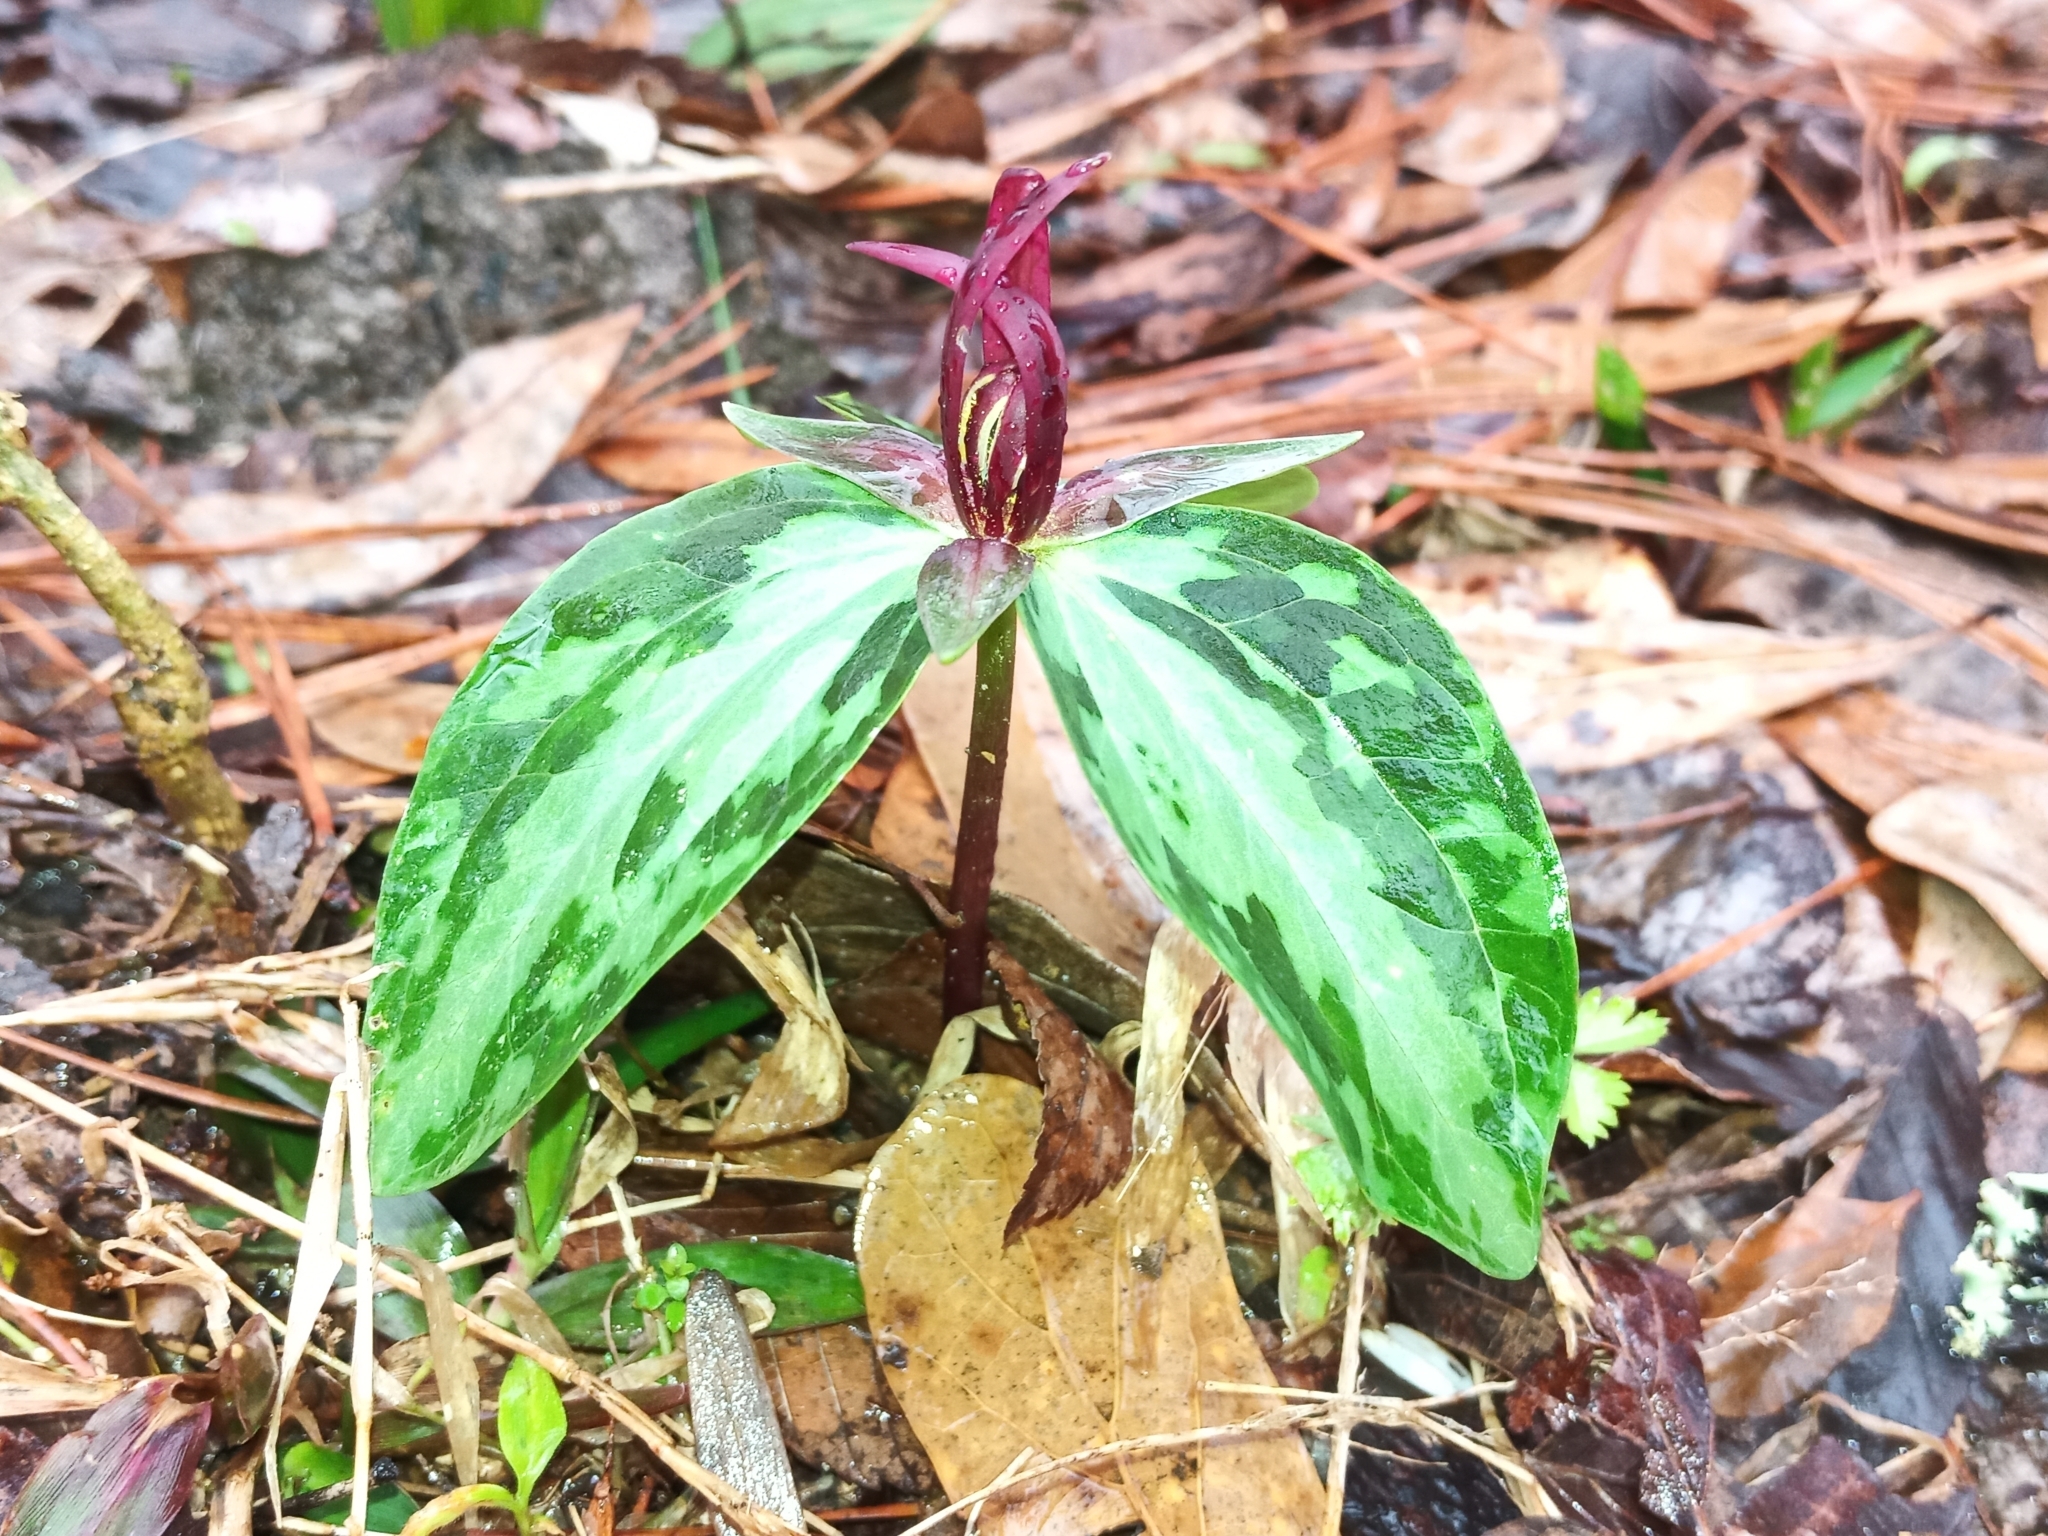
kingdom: Plantae
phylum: Tracheophyta
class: Liliopsida
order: Liliales
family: Melanthiaceae
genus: Trillium
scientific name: Trillium foetidissimum
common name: Mississippi river trillium
